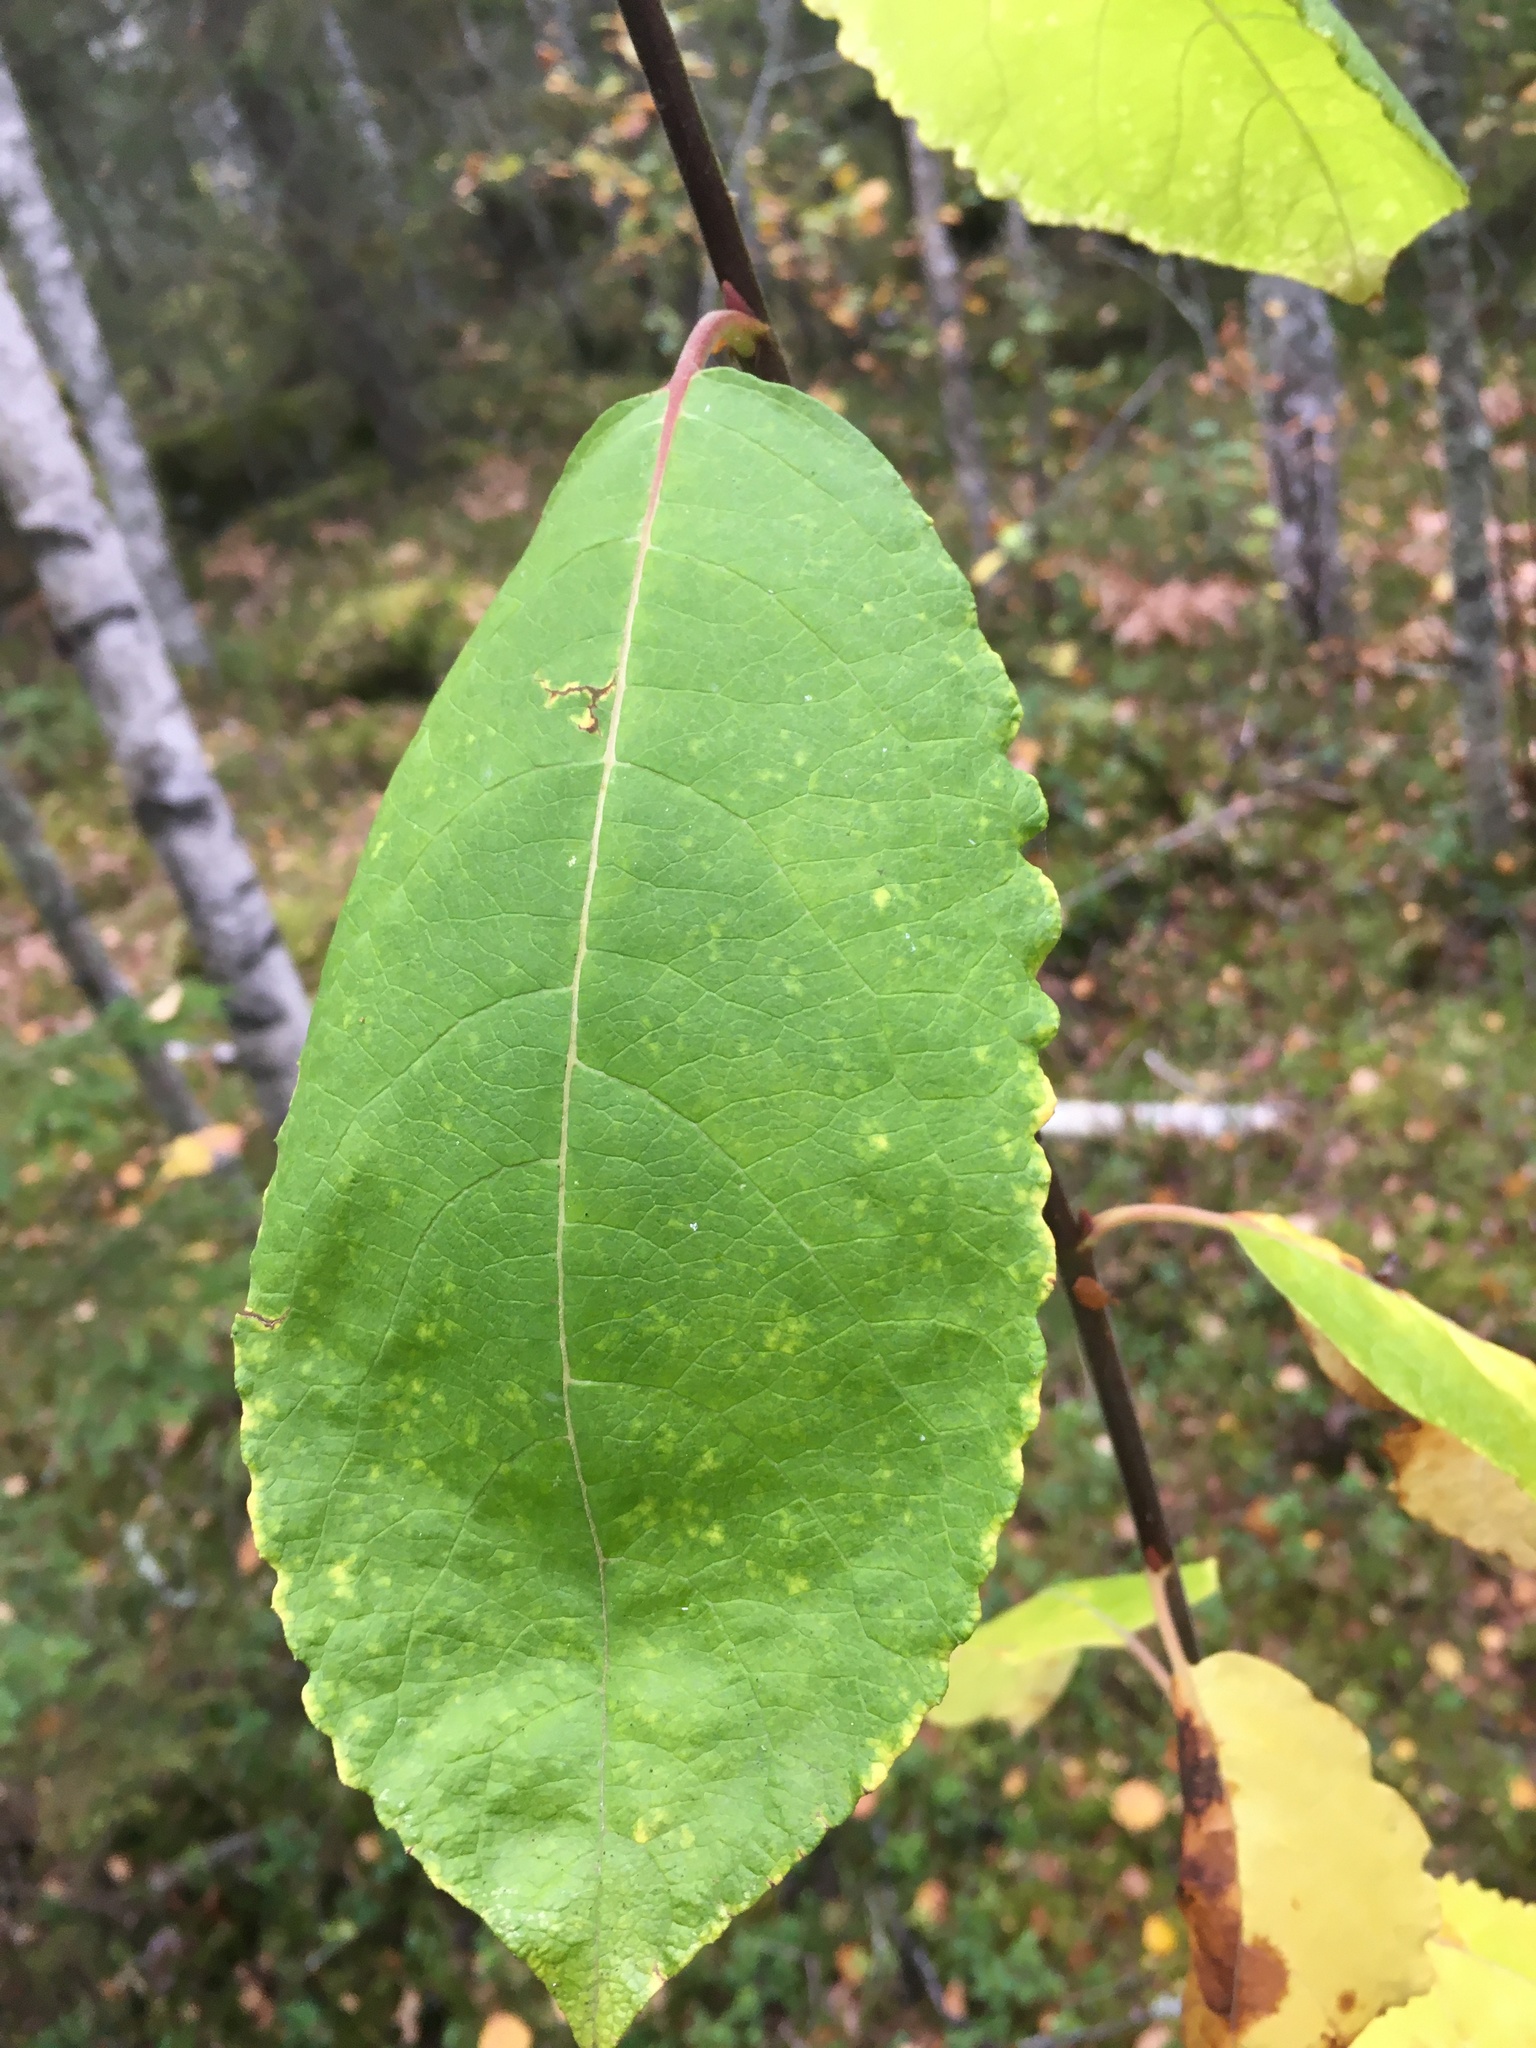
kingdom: Plantae
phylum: Tracheophyta
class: Magnoliopsida
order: Rosales
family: Rosaceae
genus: Prunus
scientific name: Prunus padus
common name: Bird cherry
